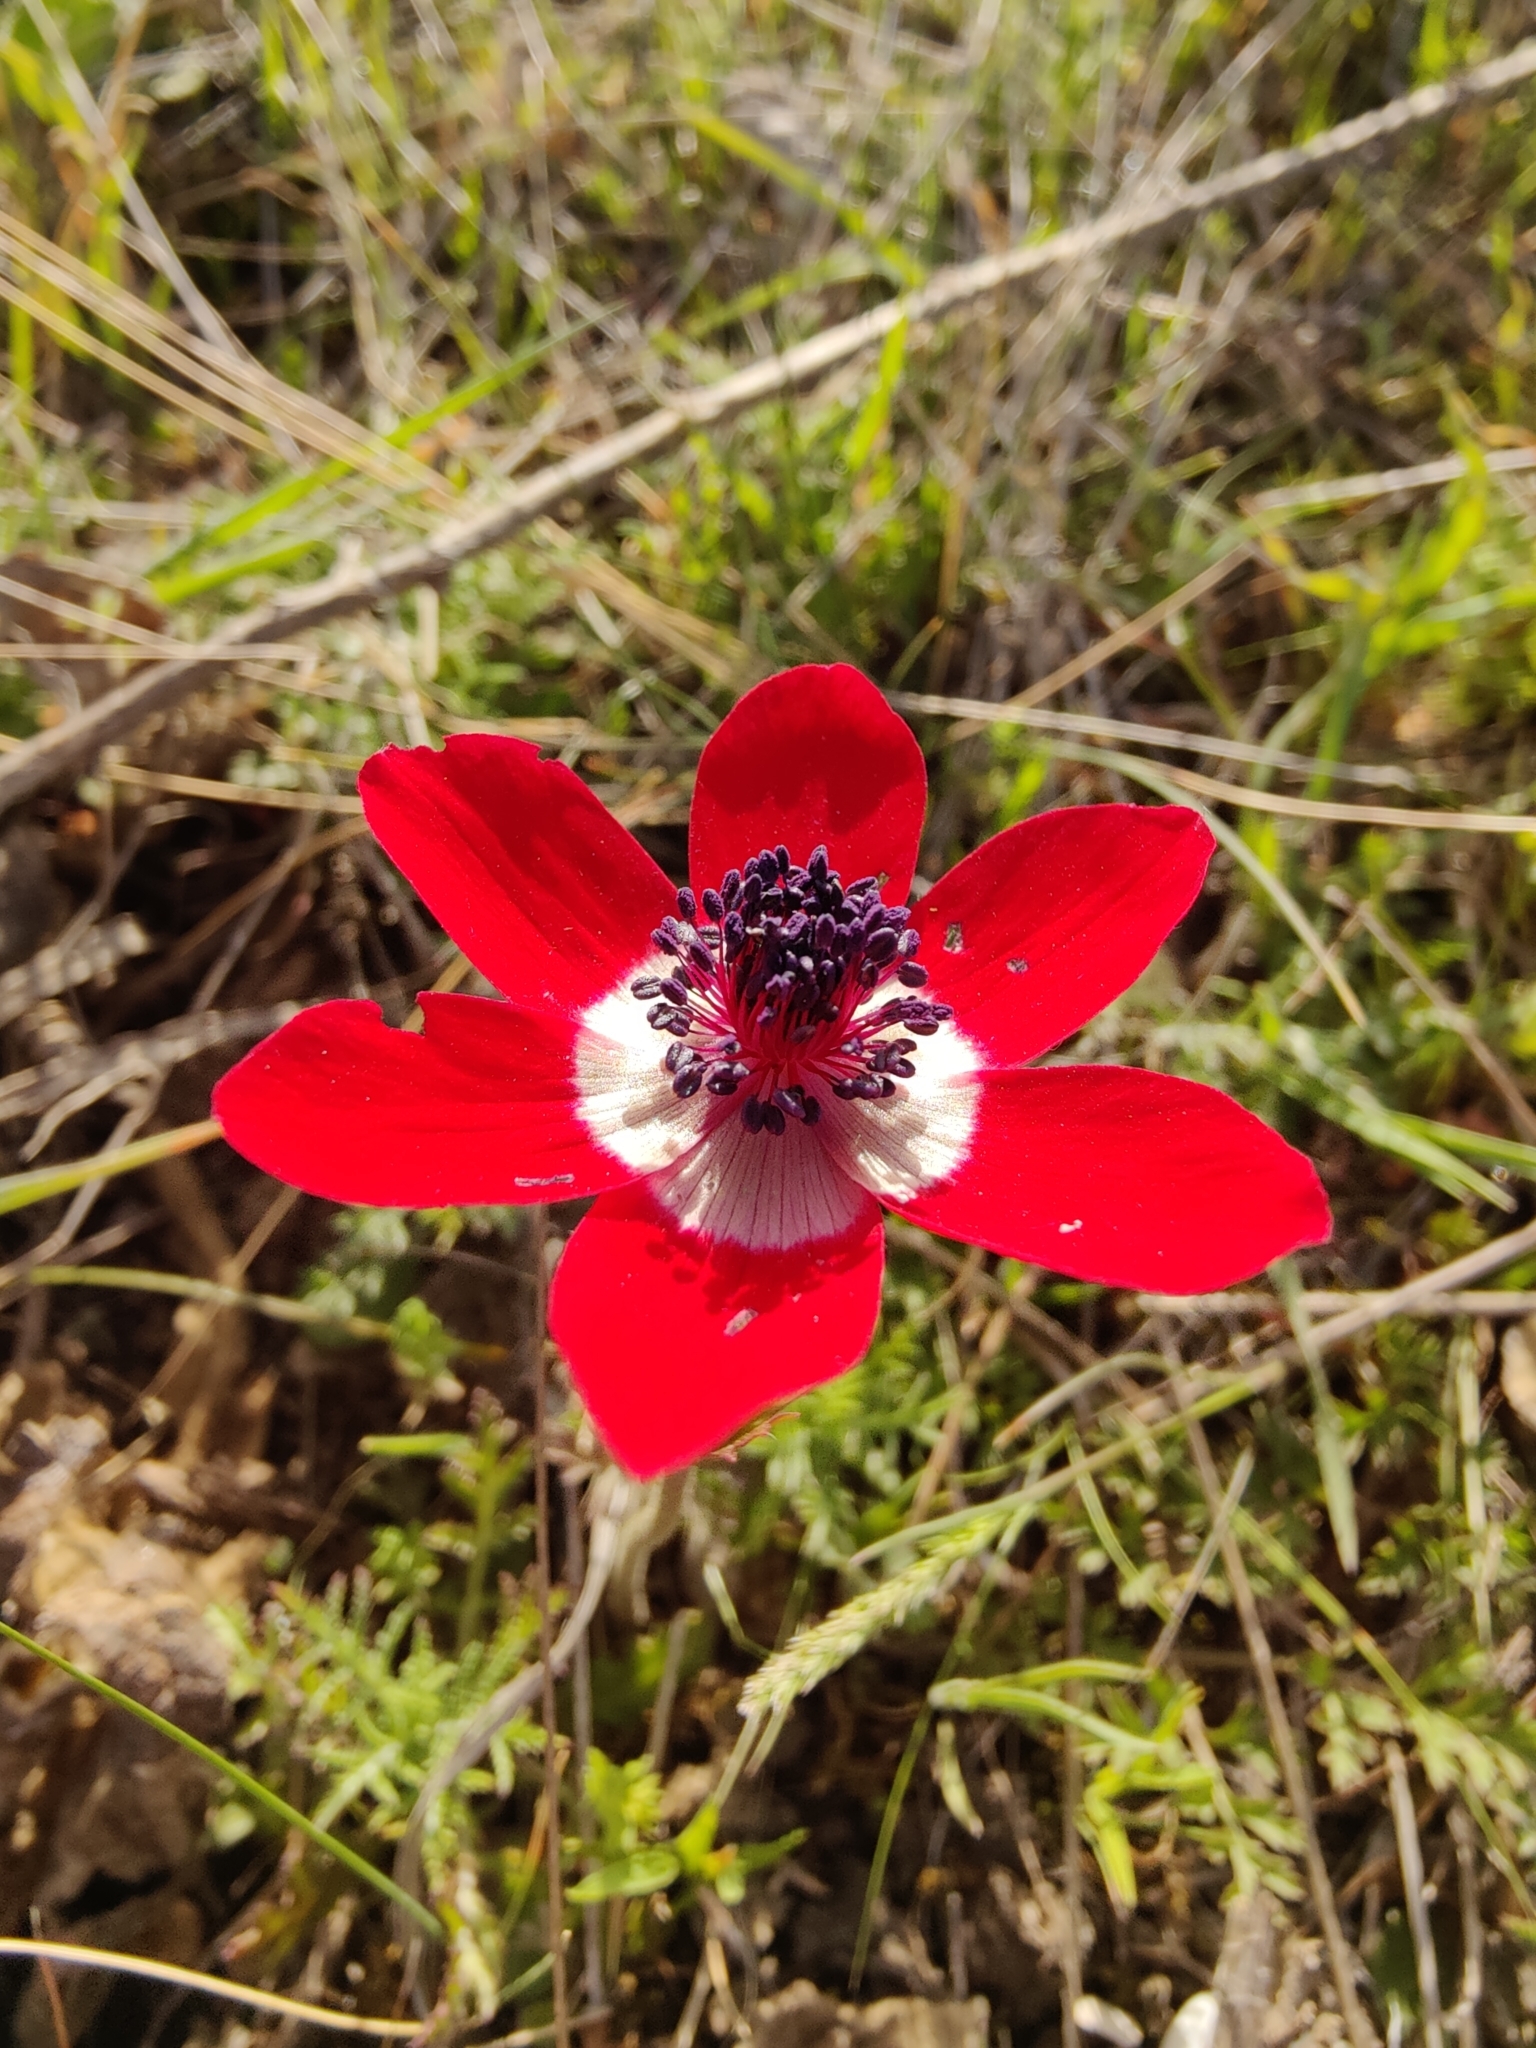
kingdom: Plantae
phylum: Tracheophyta
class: Magnoliopsida
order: Ranunculales
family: Ranunculaceae
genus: Anemone
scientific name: Anemone coronaria
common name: Poppy anemone
